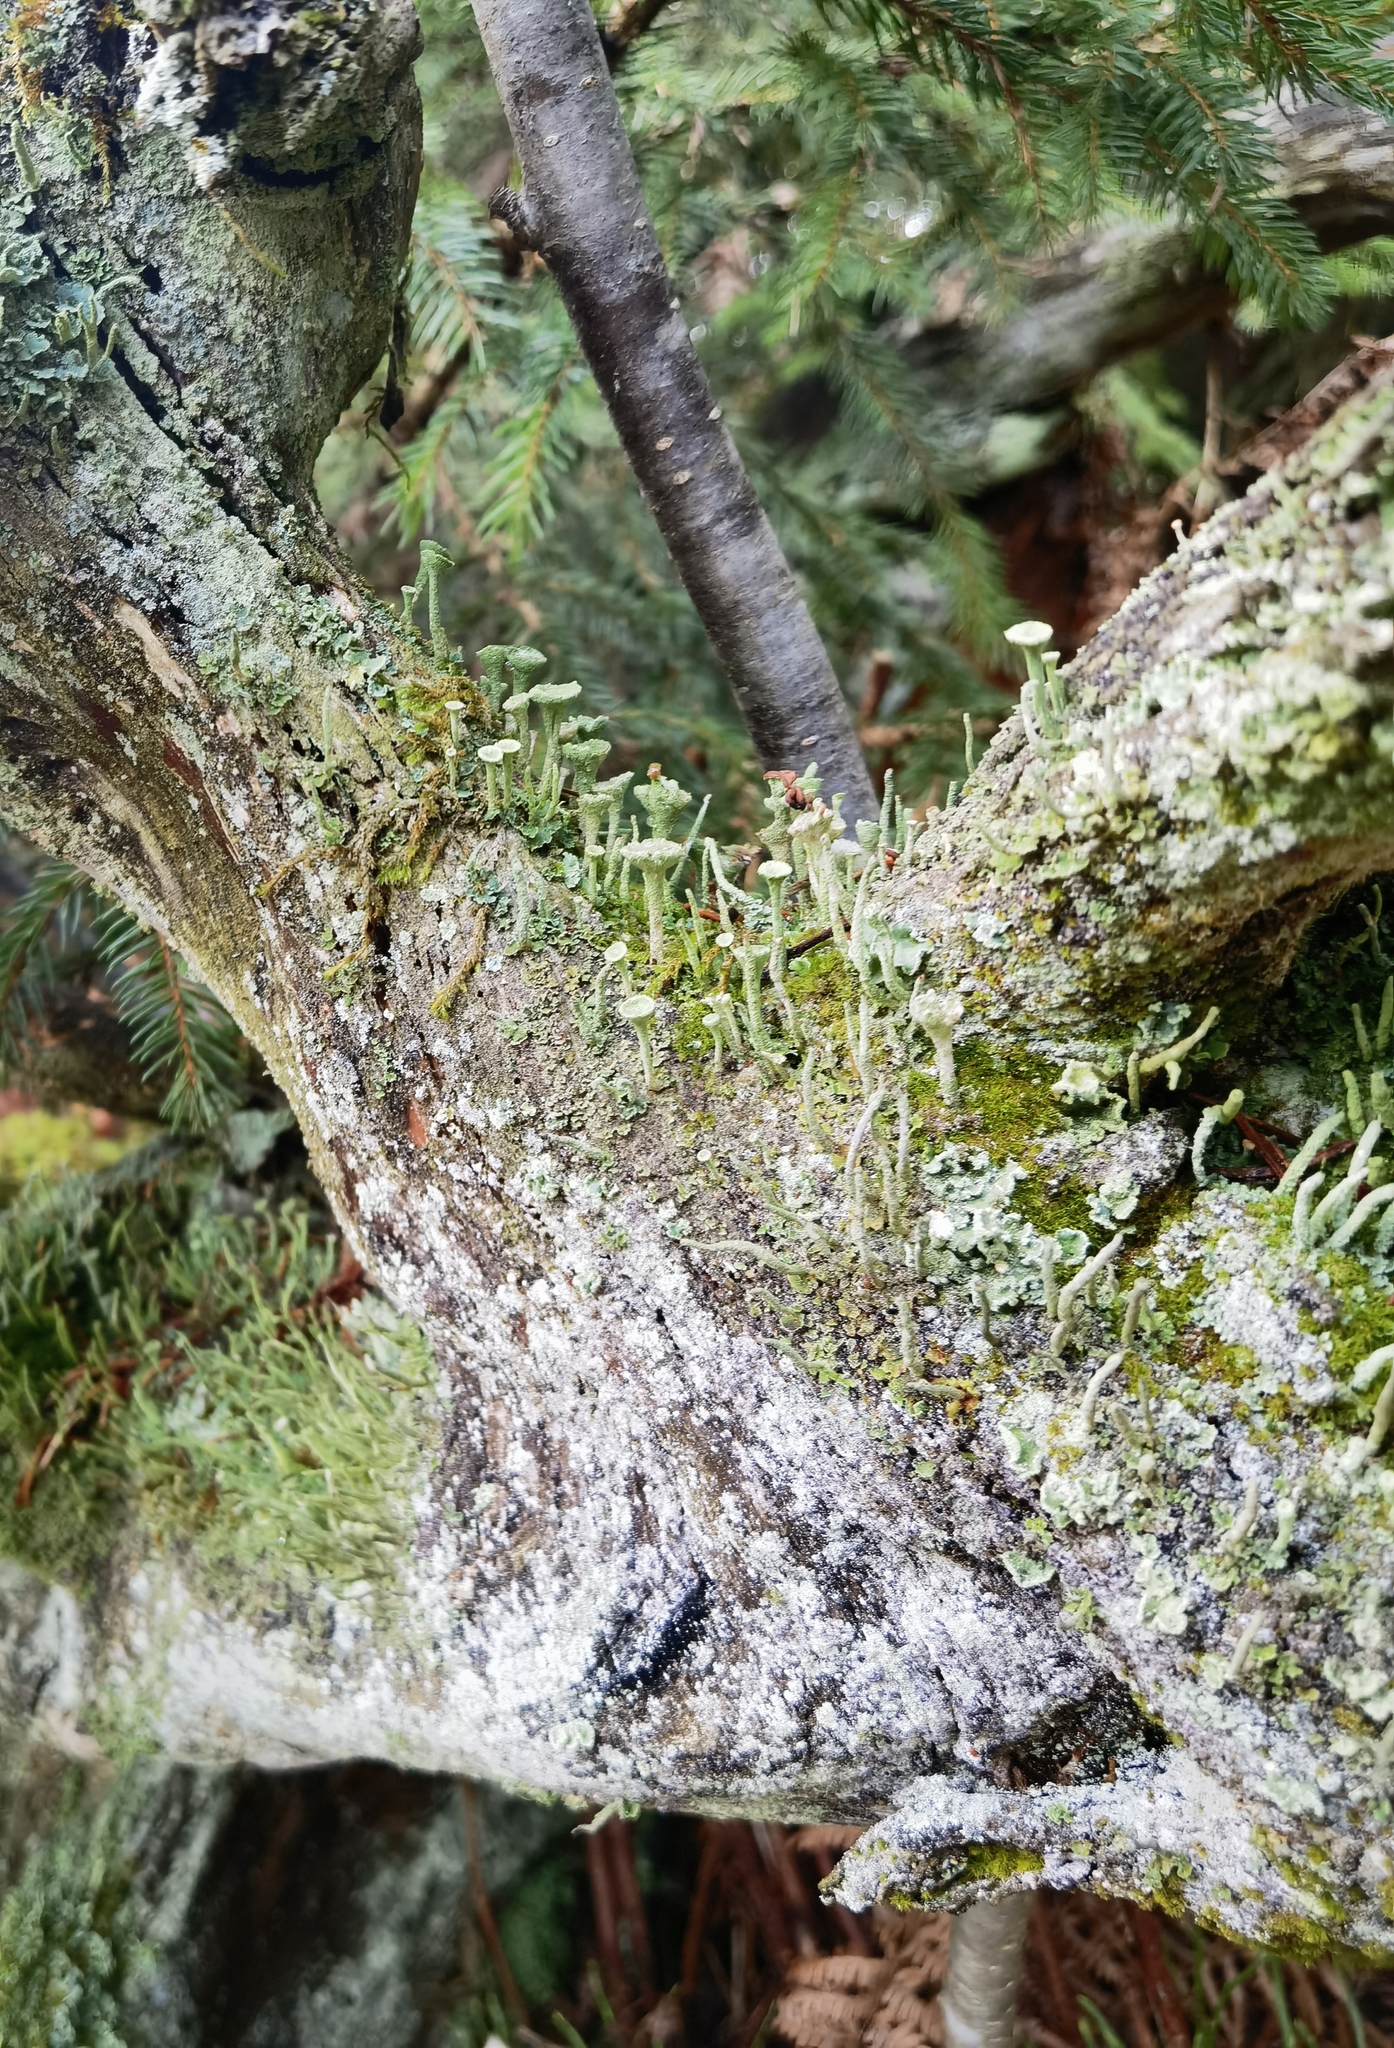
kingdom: Fungi
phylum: Ascomycota
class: Lecanoromycetes
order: Lecanorales
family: Cladoniaceae
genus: Cladonia
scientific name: Cladonia fimbriata
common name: Powdered trumpet lichen
